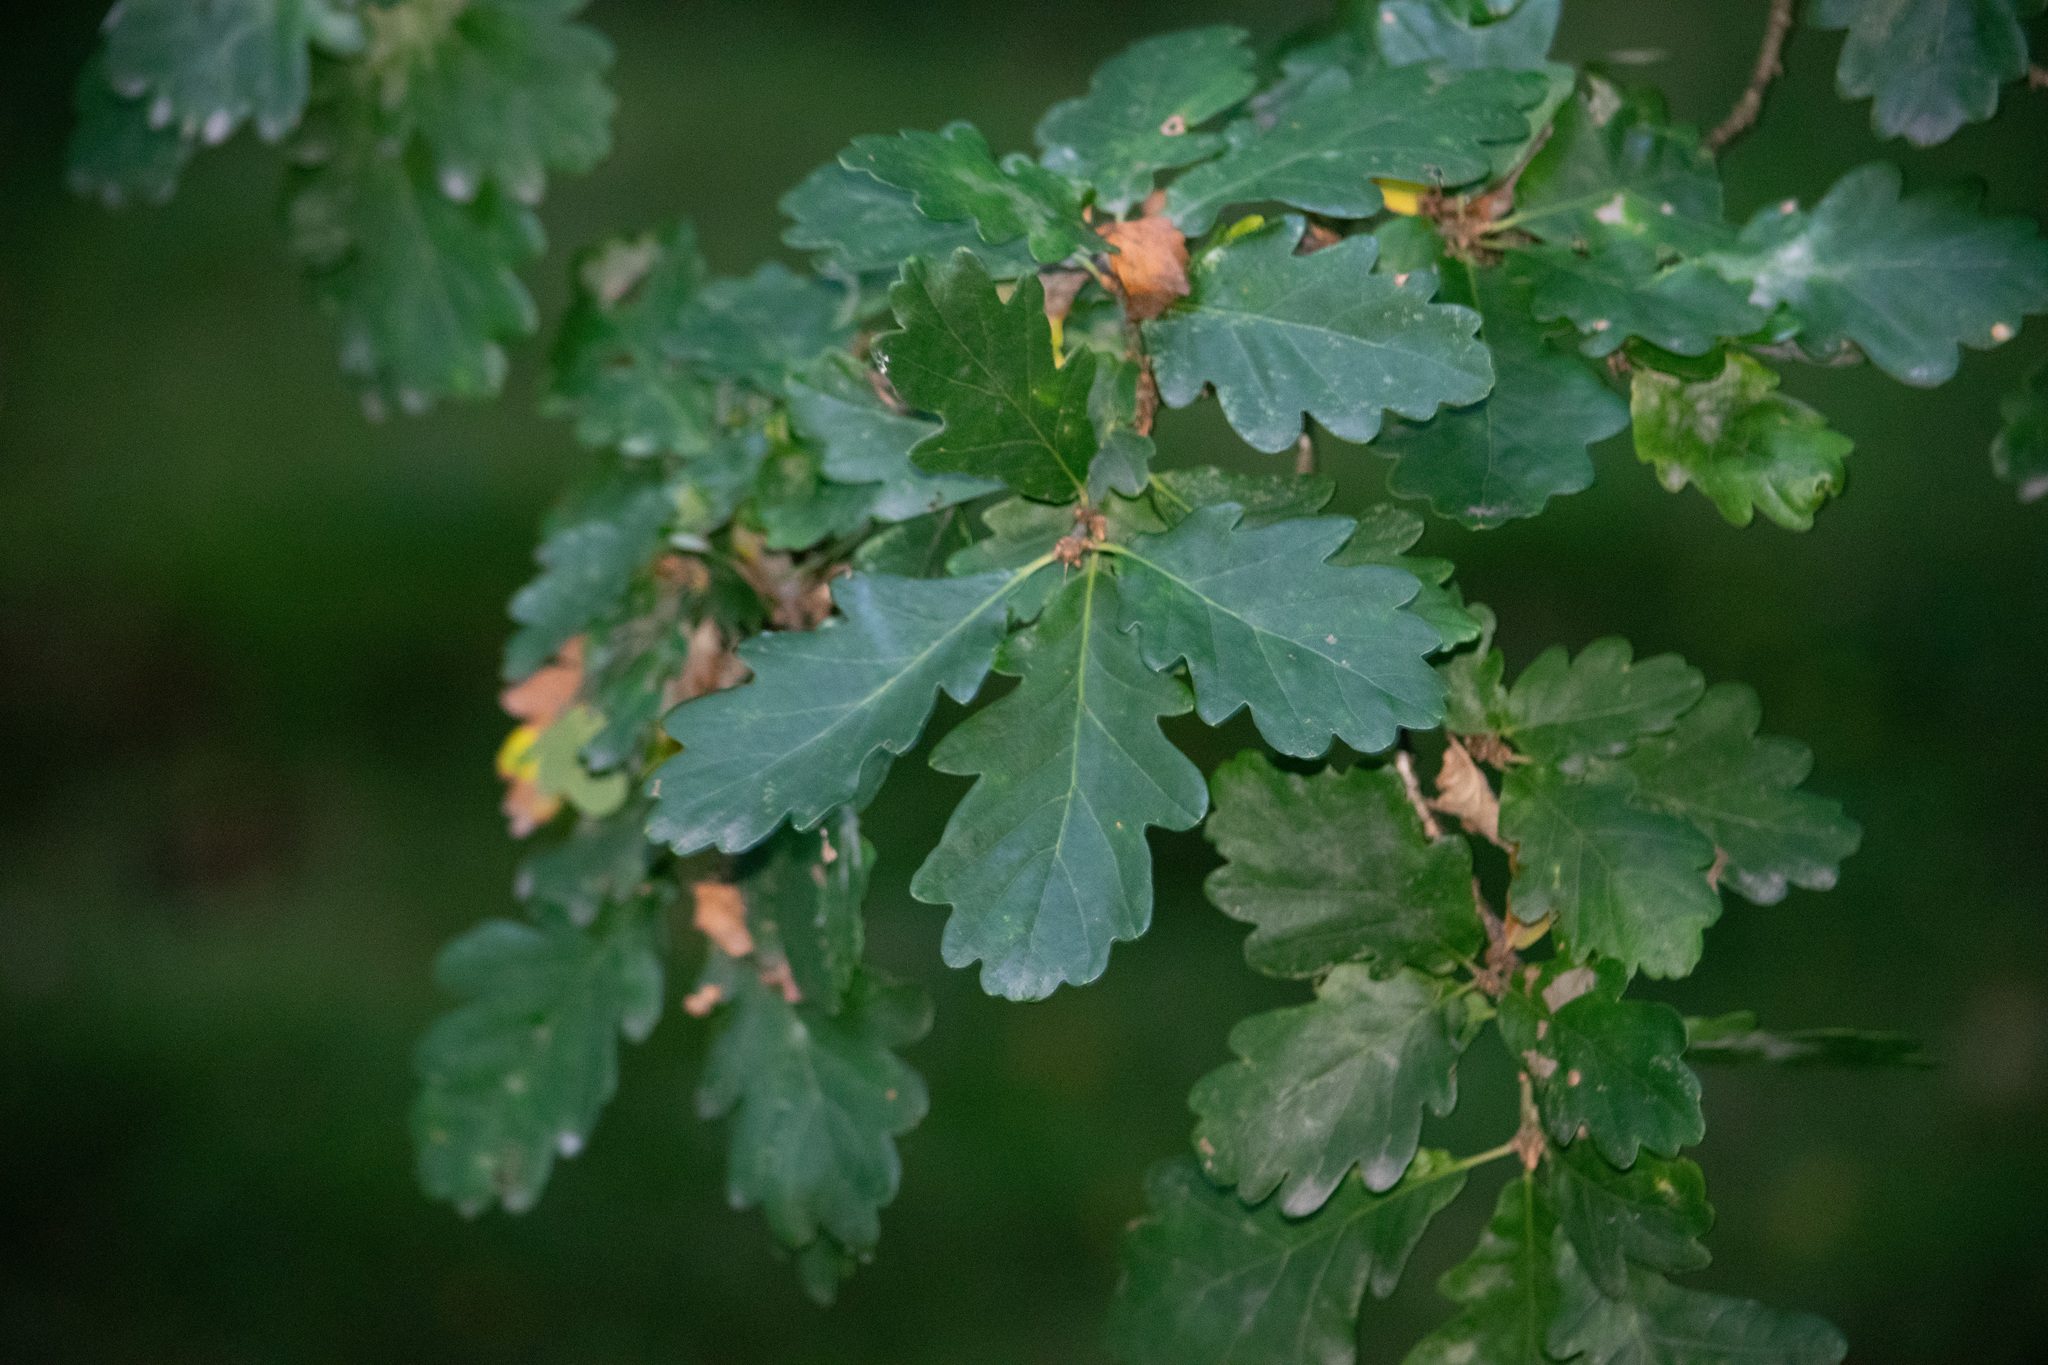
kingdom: Plantae
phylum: Tracheophyta
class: Magnoliopsida
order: Fagales
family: Fagaceae
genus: Quercus
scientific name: Quercus petraea
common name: Sessile oak
